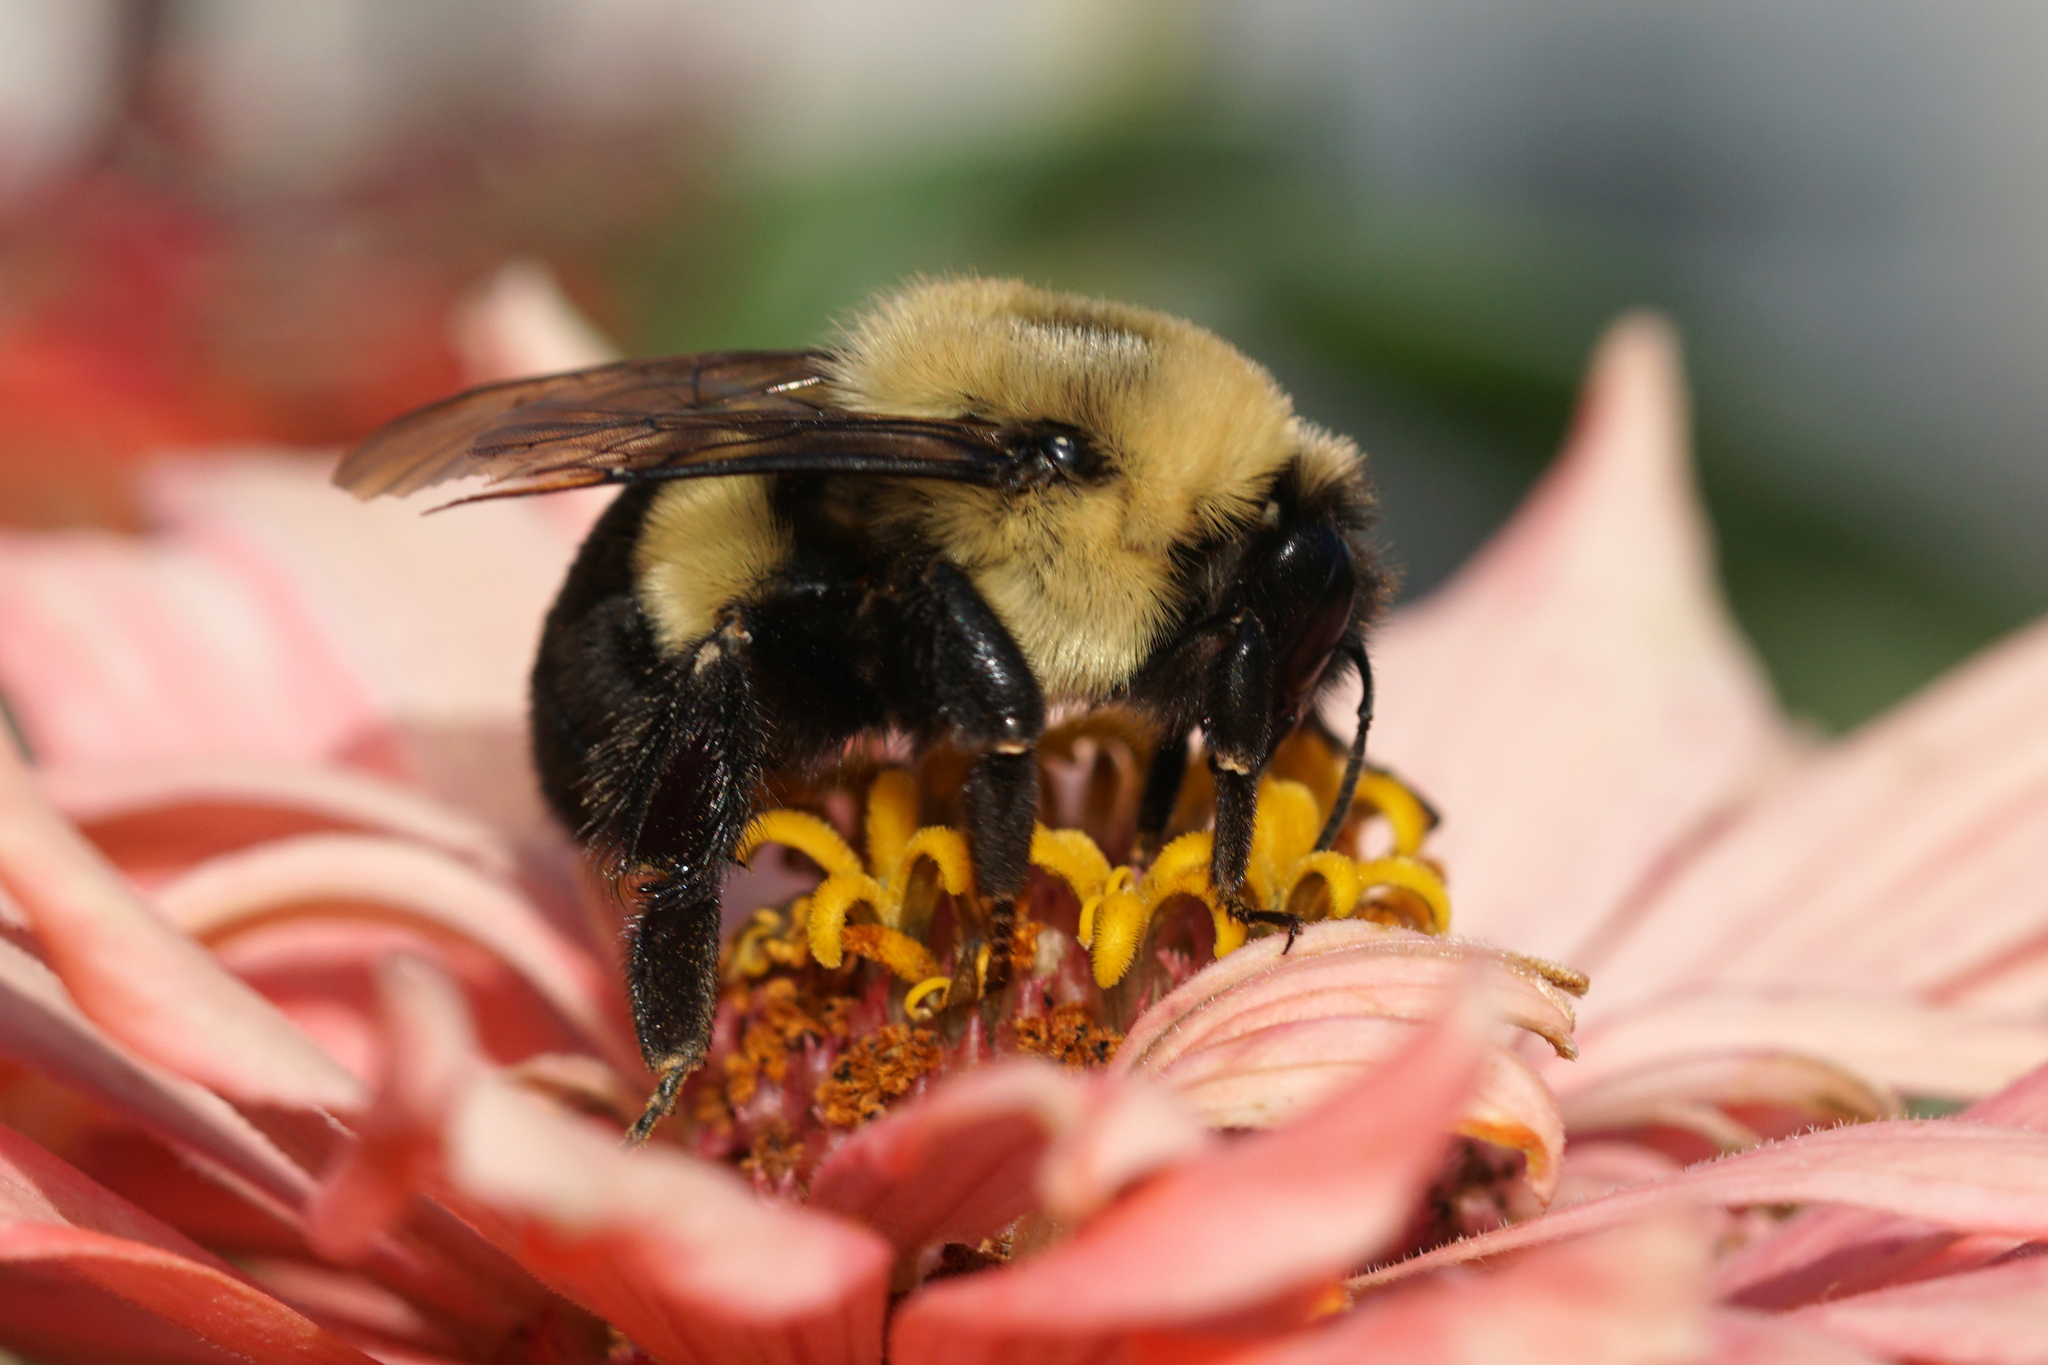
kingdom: Animalia
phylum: Arthropoda
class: Insecta
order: Hymenoptera
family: Apidae
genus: Bombus
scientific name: Bombus impatiens
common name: Common eastern bumble bee
